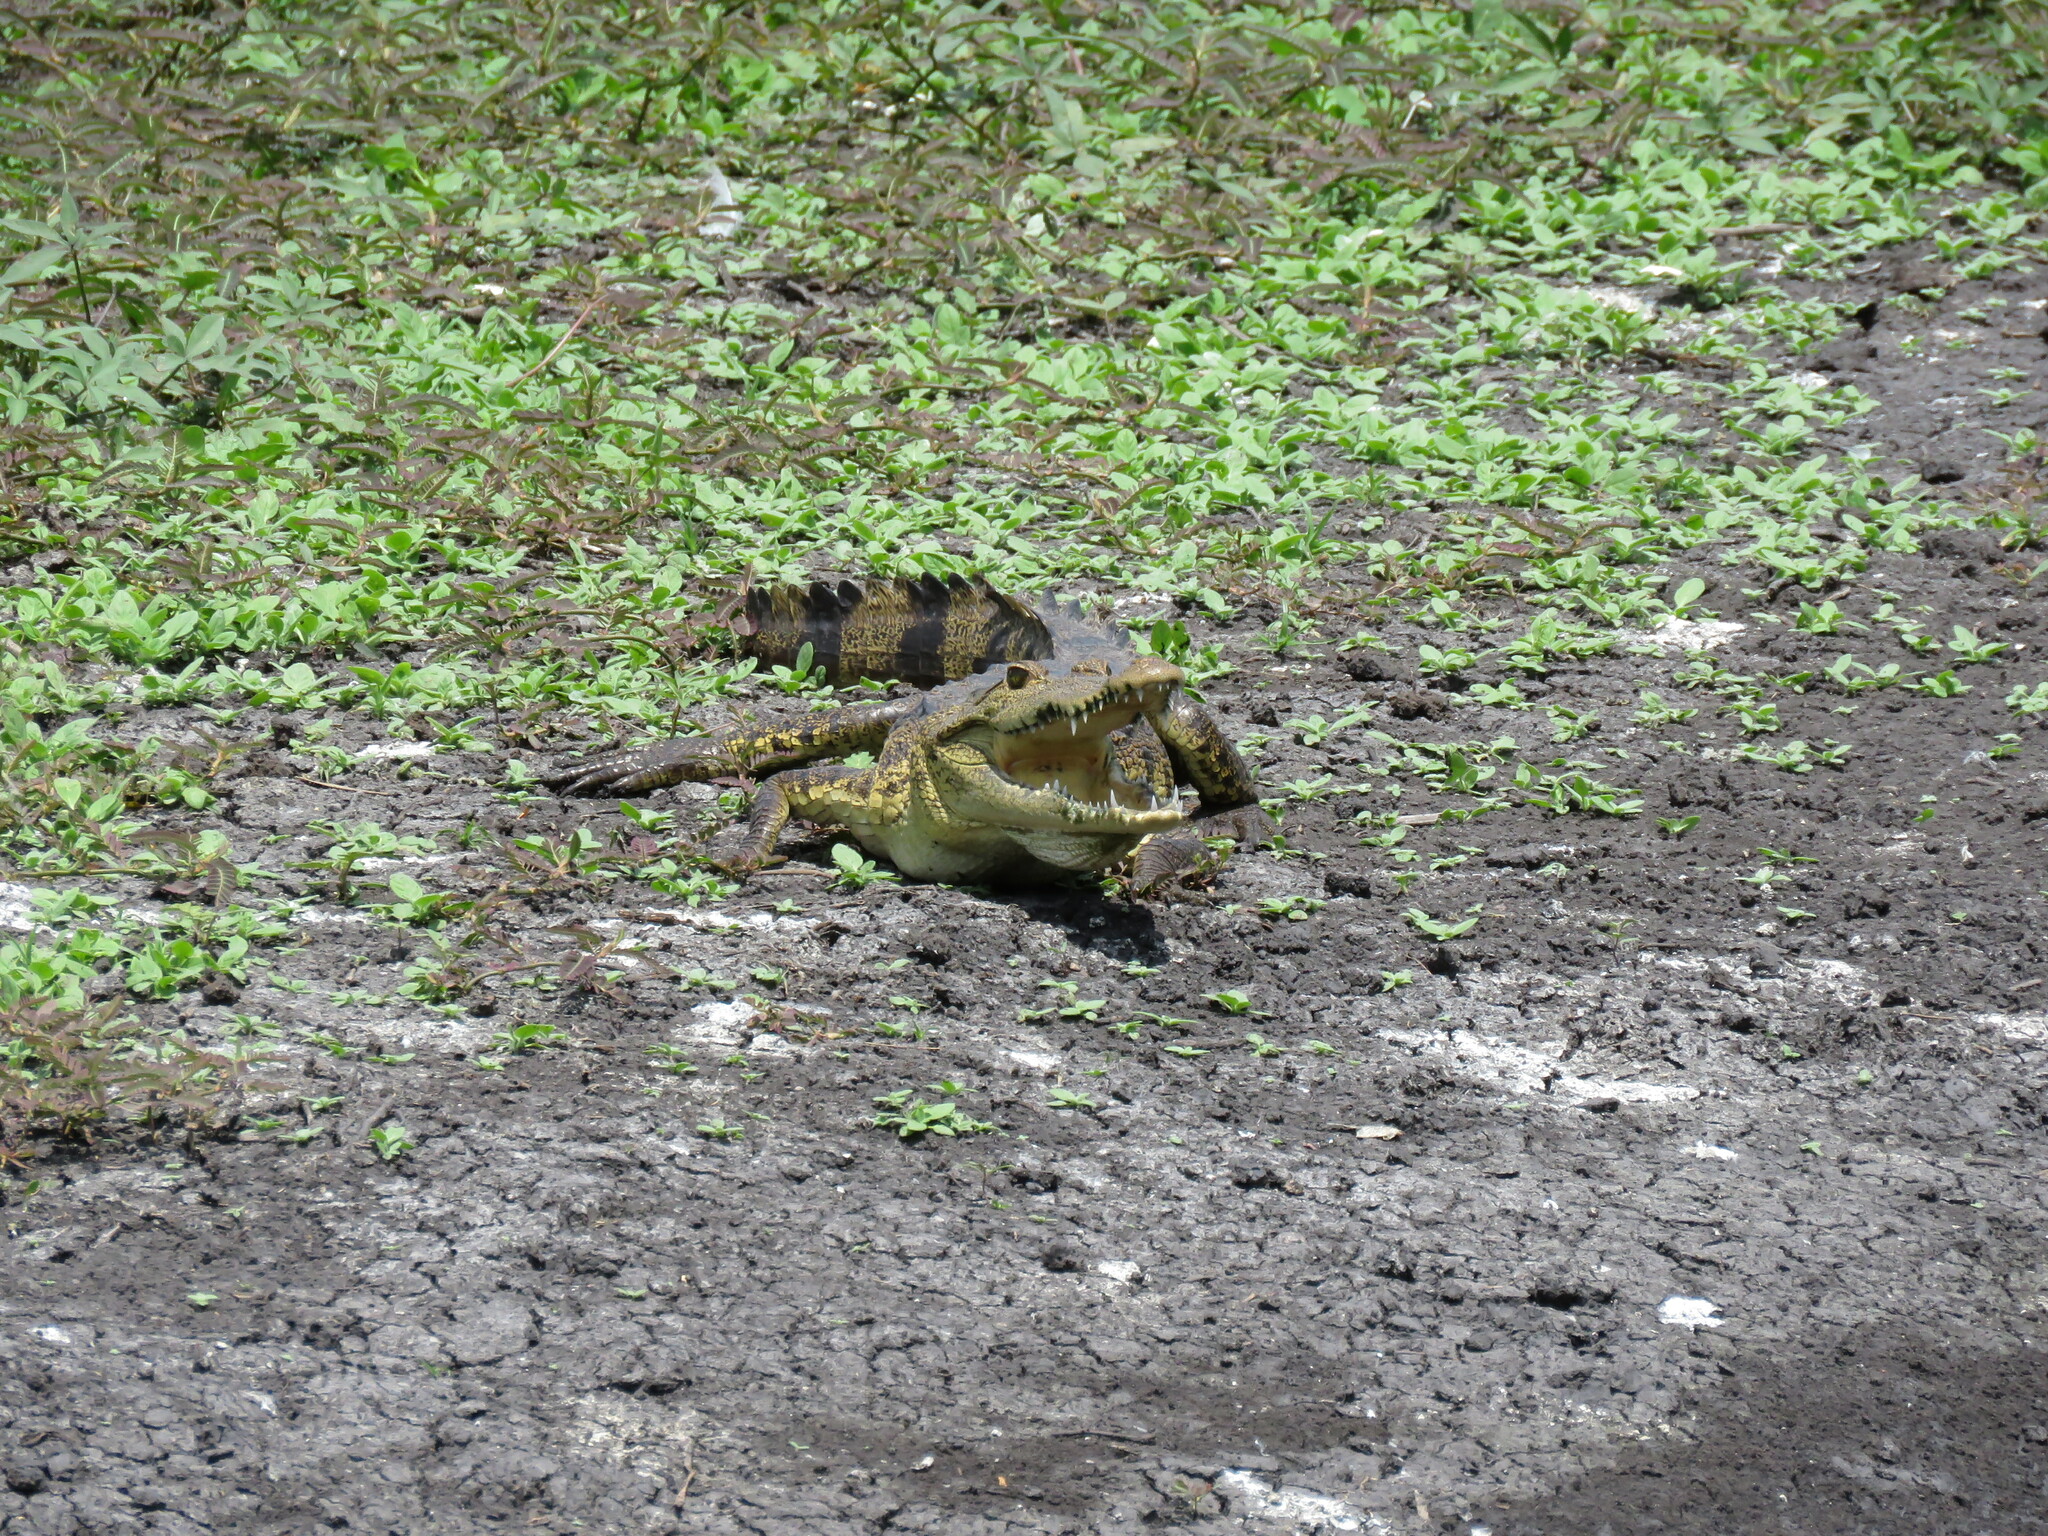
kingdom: Animalia
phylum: Chordata
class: Crocodylia
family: Crocodylidae
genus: Crocodylus
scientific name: Crocodylus moreletii
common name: Morelet's crocodile
